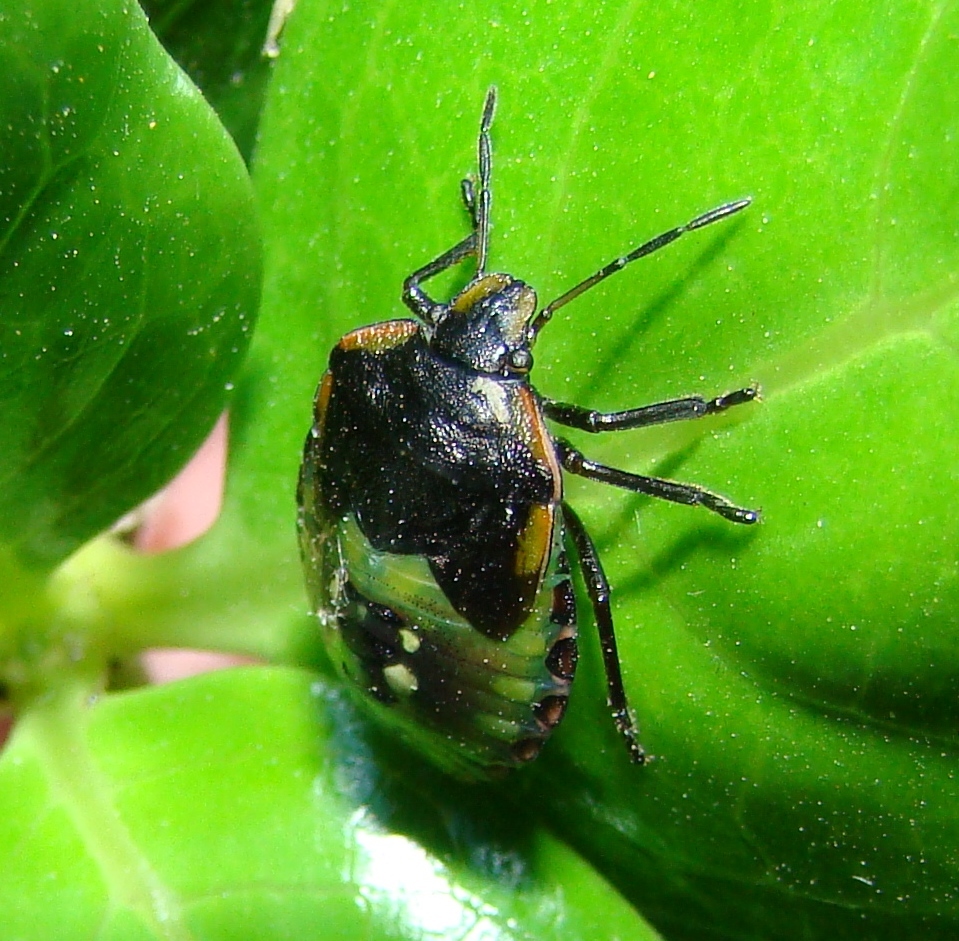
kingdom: Animalia
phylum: Arthropoda
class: Insecta
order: Hemiptera
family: Pentatomidae
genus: Glaucias
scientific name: Glaucias amyota
